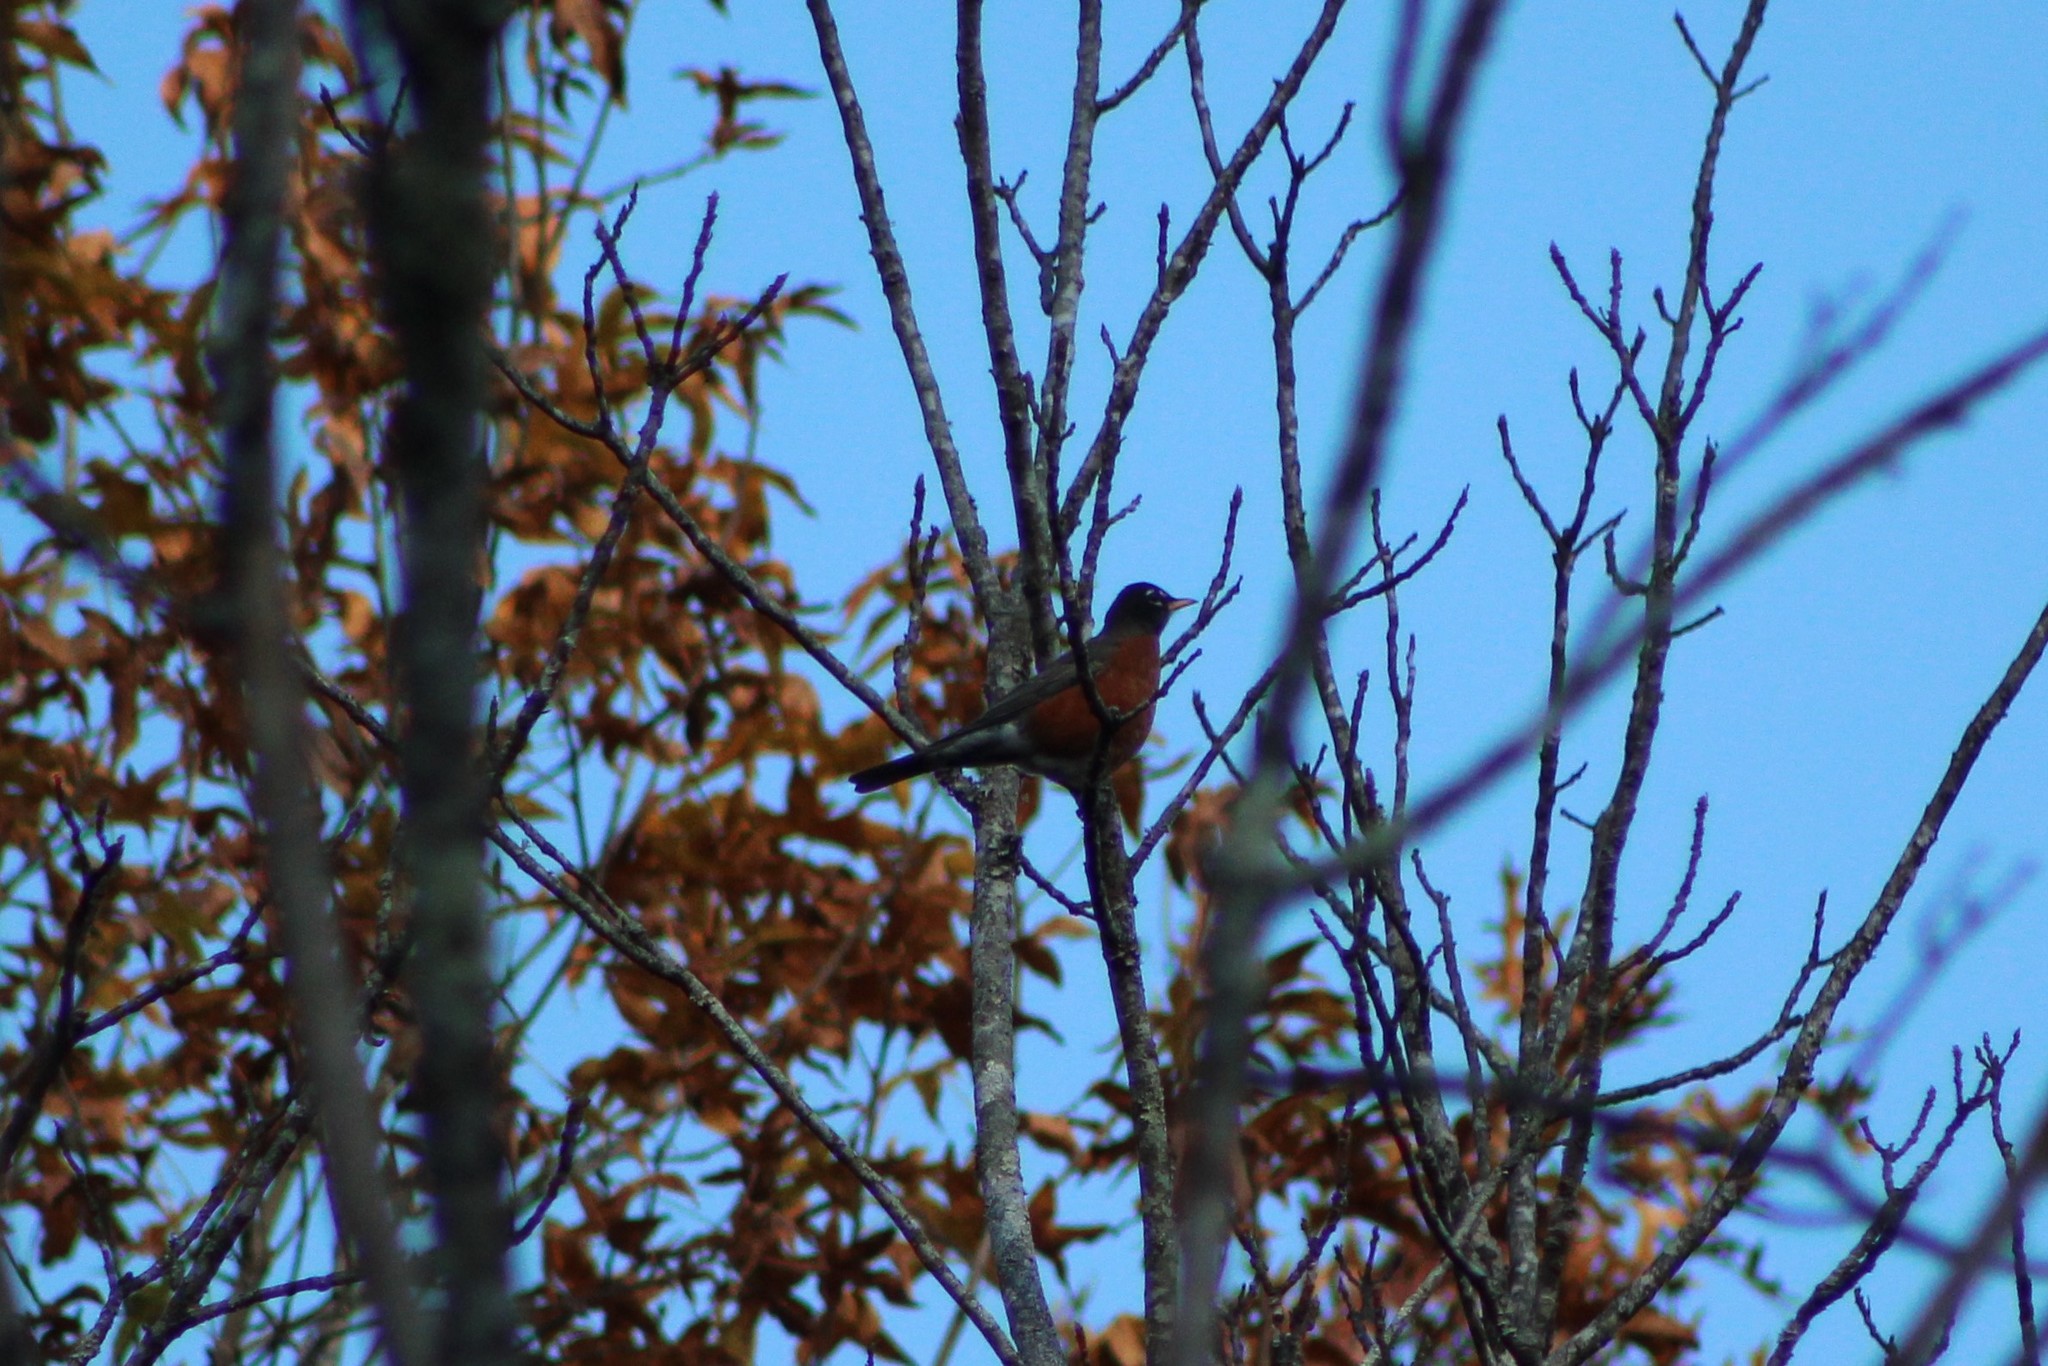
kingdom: Animalia
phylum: Chordata
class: Aves
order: Passeriformes
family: Turdidae
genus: Turdus
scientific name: Turdus migratorius
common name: American robin
